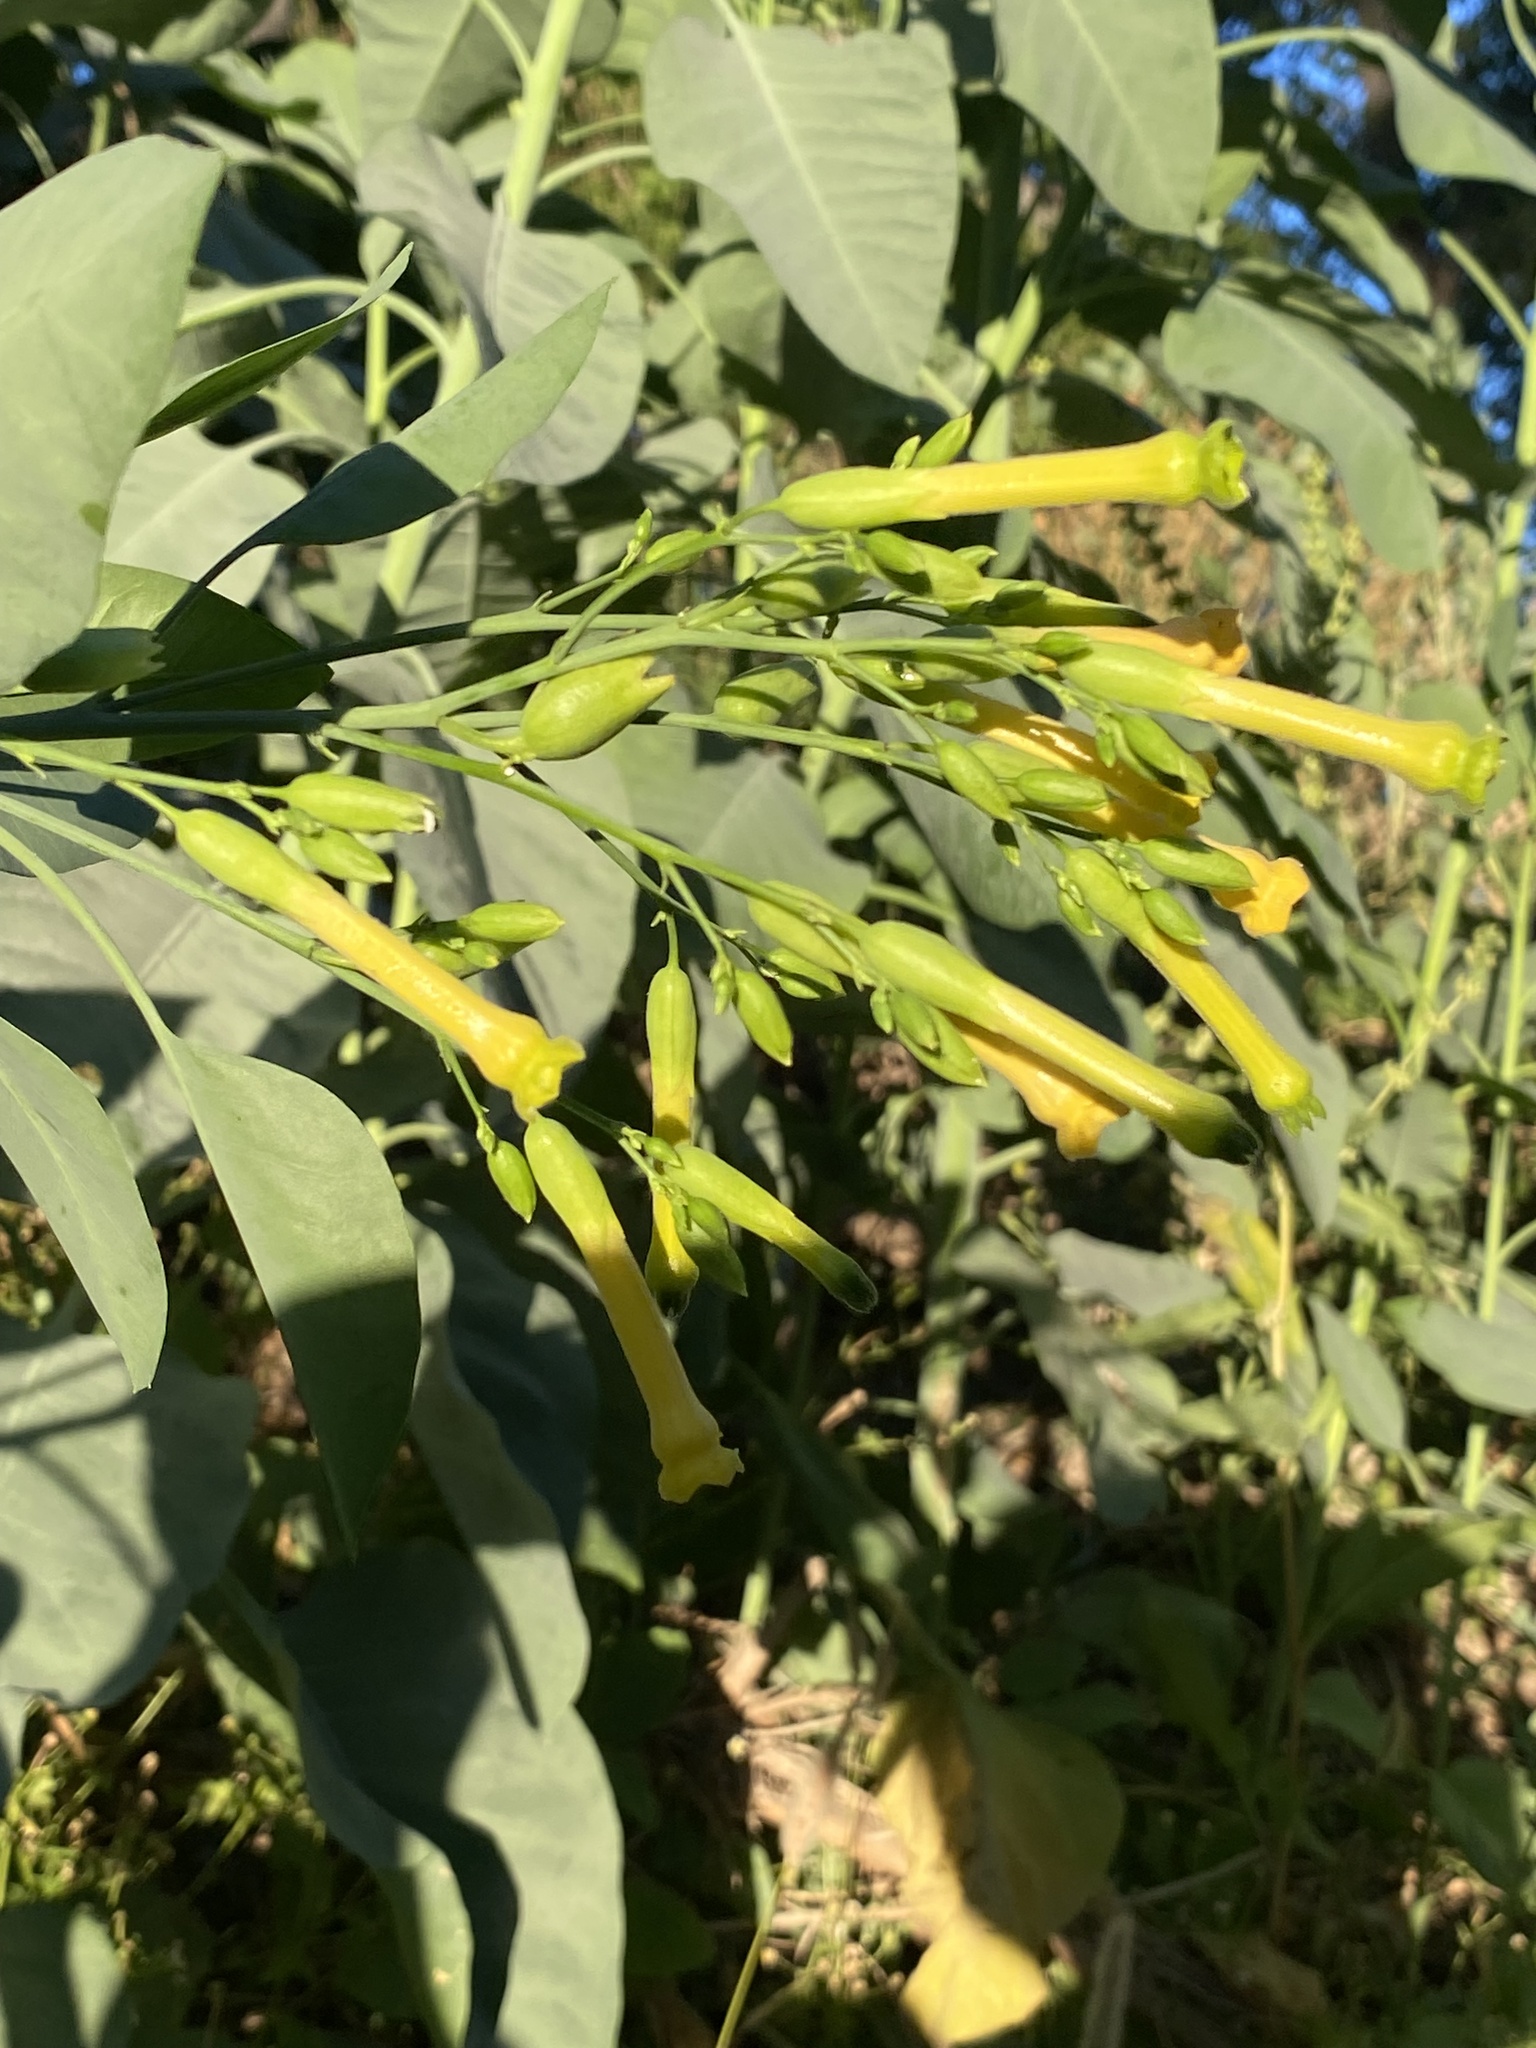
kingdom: Plantae
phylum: Tracheophyta
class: Magnoliopsida
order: Solanales
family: Solanaceae
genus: Nicotiana
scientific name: Nicotiana glauca
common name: Tree tobacco
